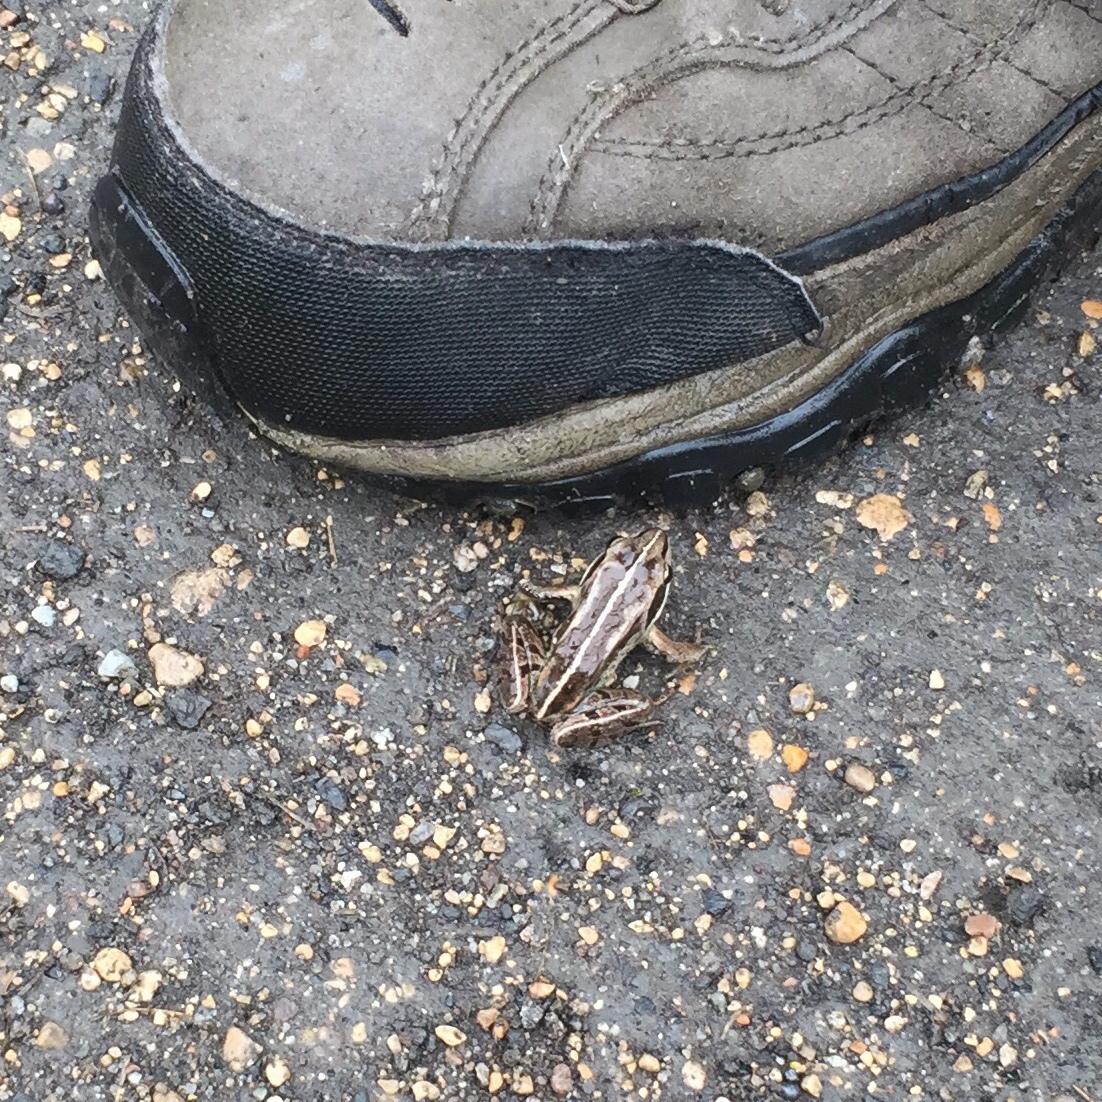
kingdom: Animalia
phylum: Chordata
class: Amphibia
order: Anura
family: Ranidae
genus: Lithobates
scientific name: Lithobates sylvaticus
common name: Wood frog
